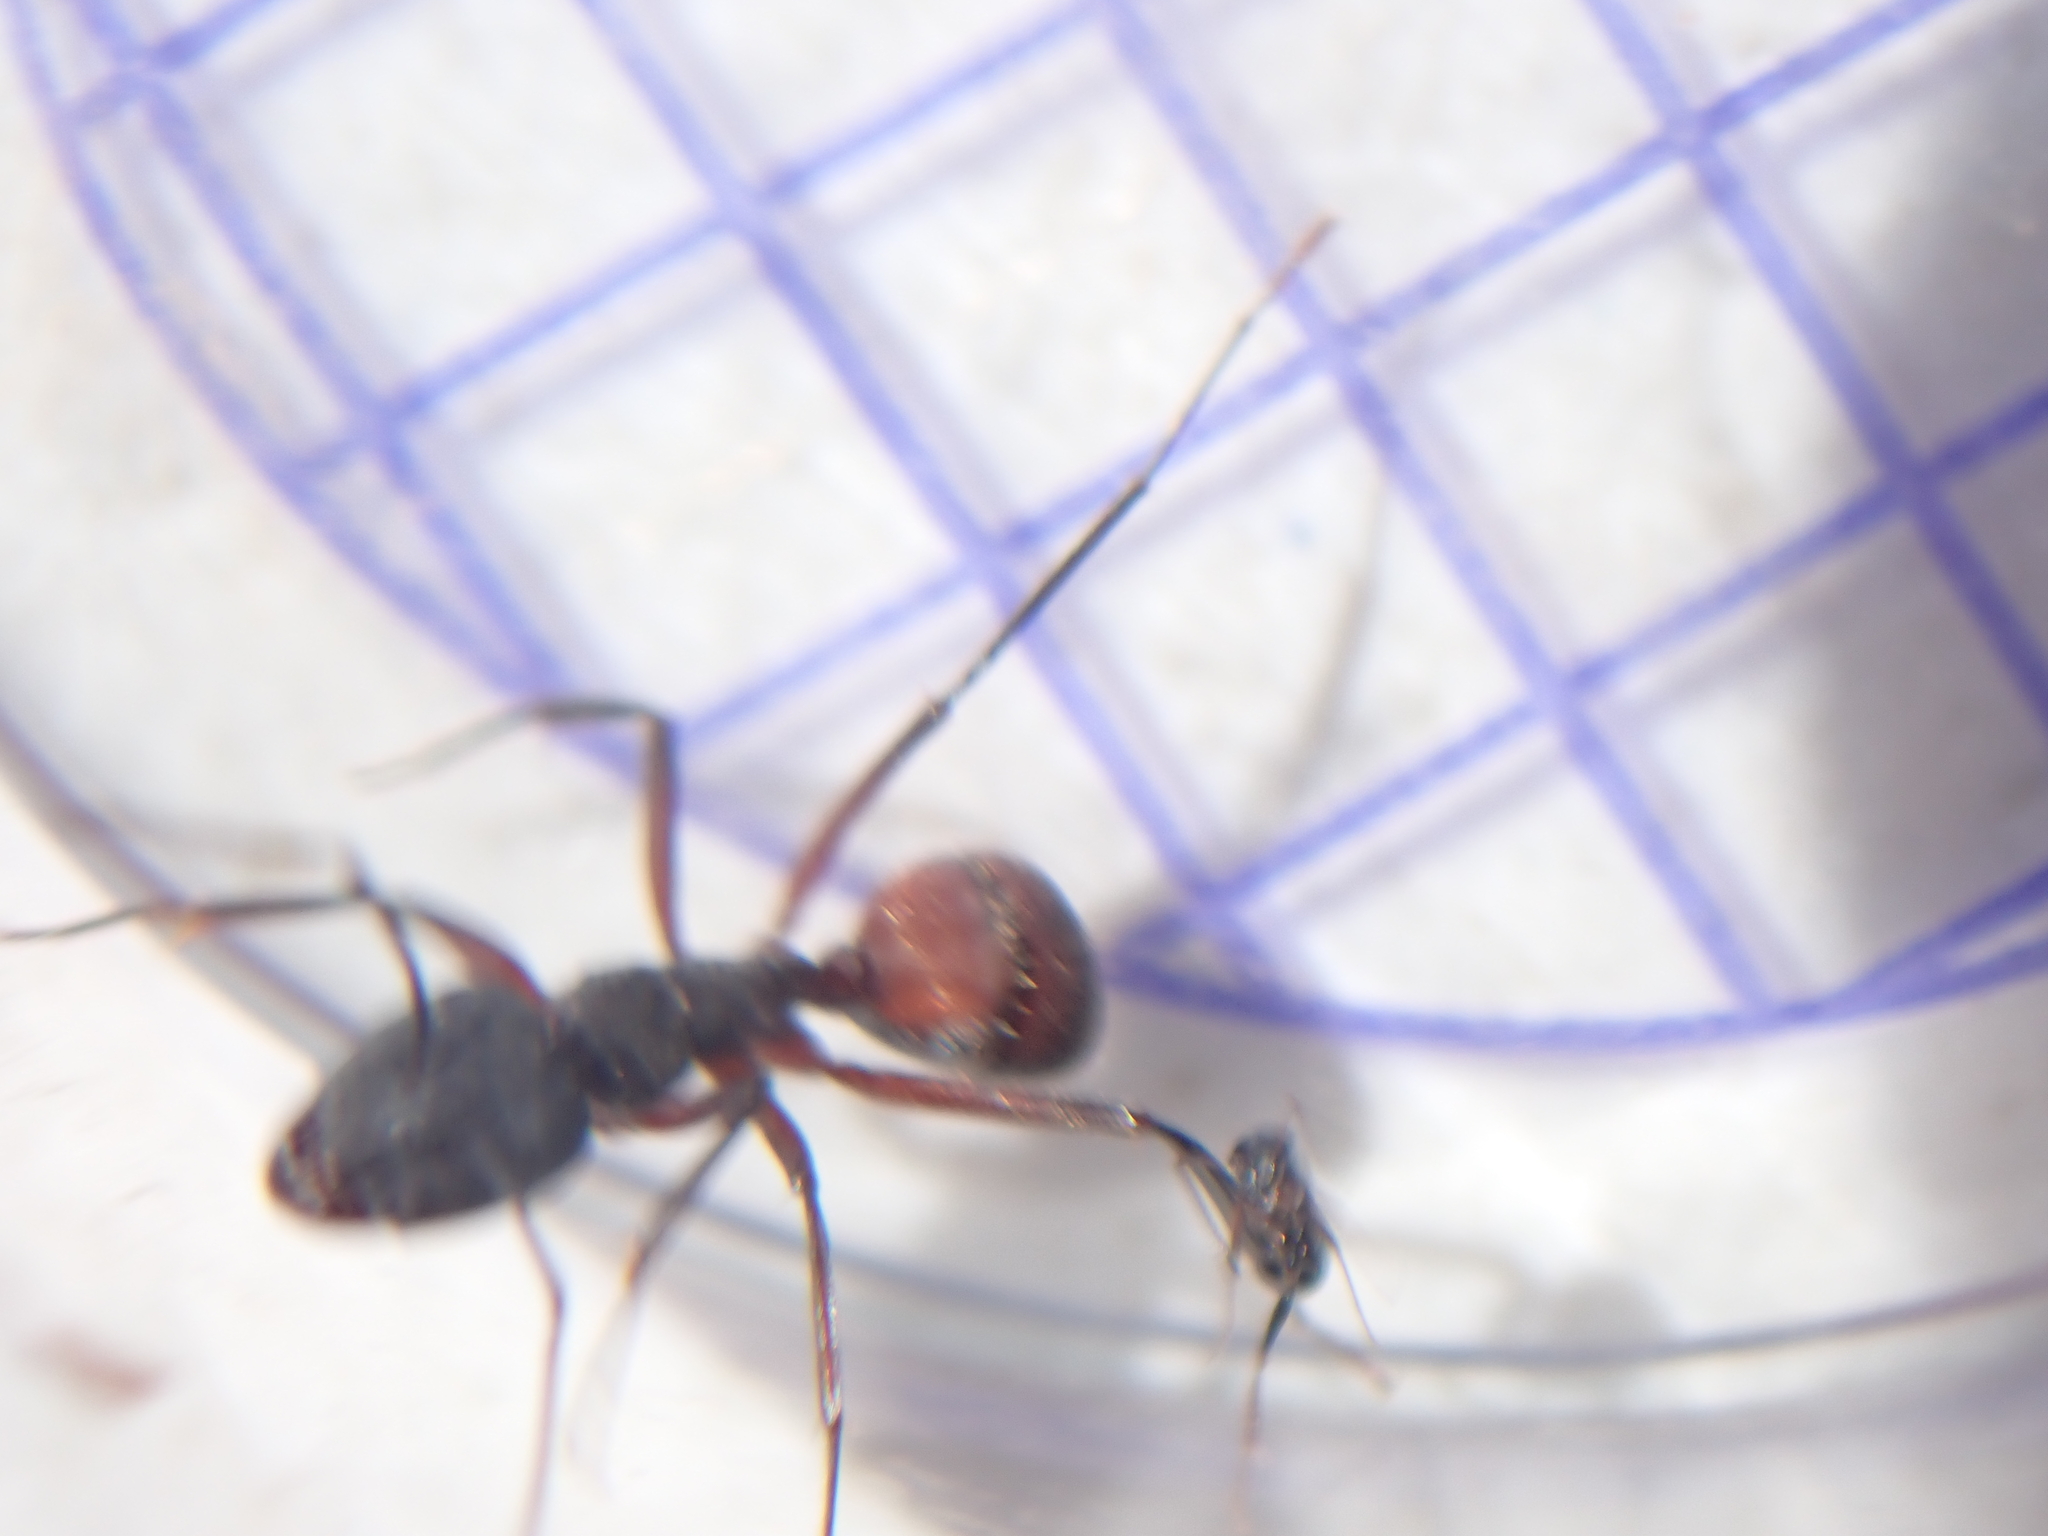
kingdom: Animalia
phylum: Arthropoda
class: Insecta
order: Hymenoptera
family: Formicidae
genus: Camponotus
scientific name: Camponotus cruentatus
